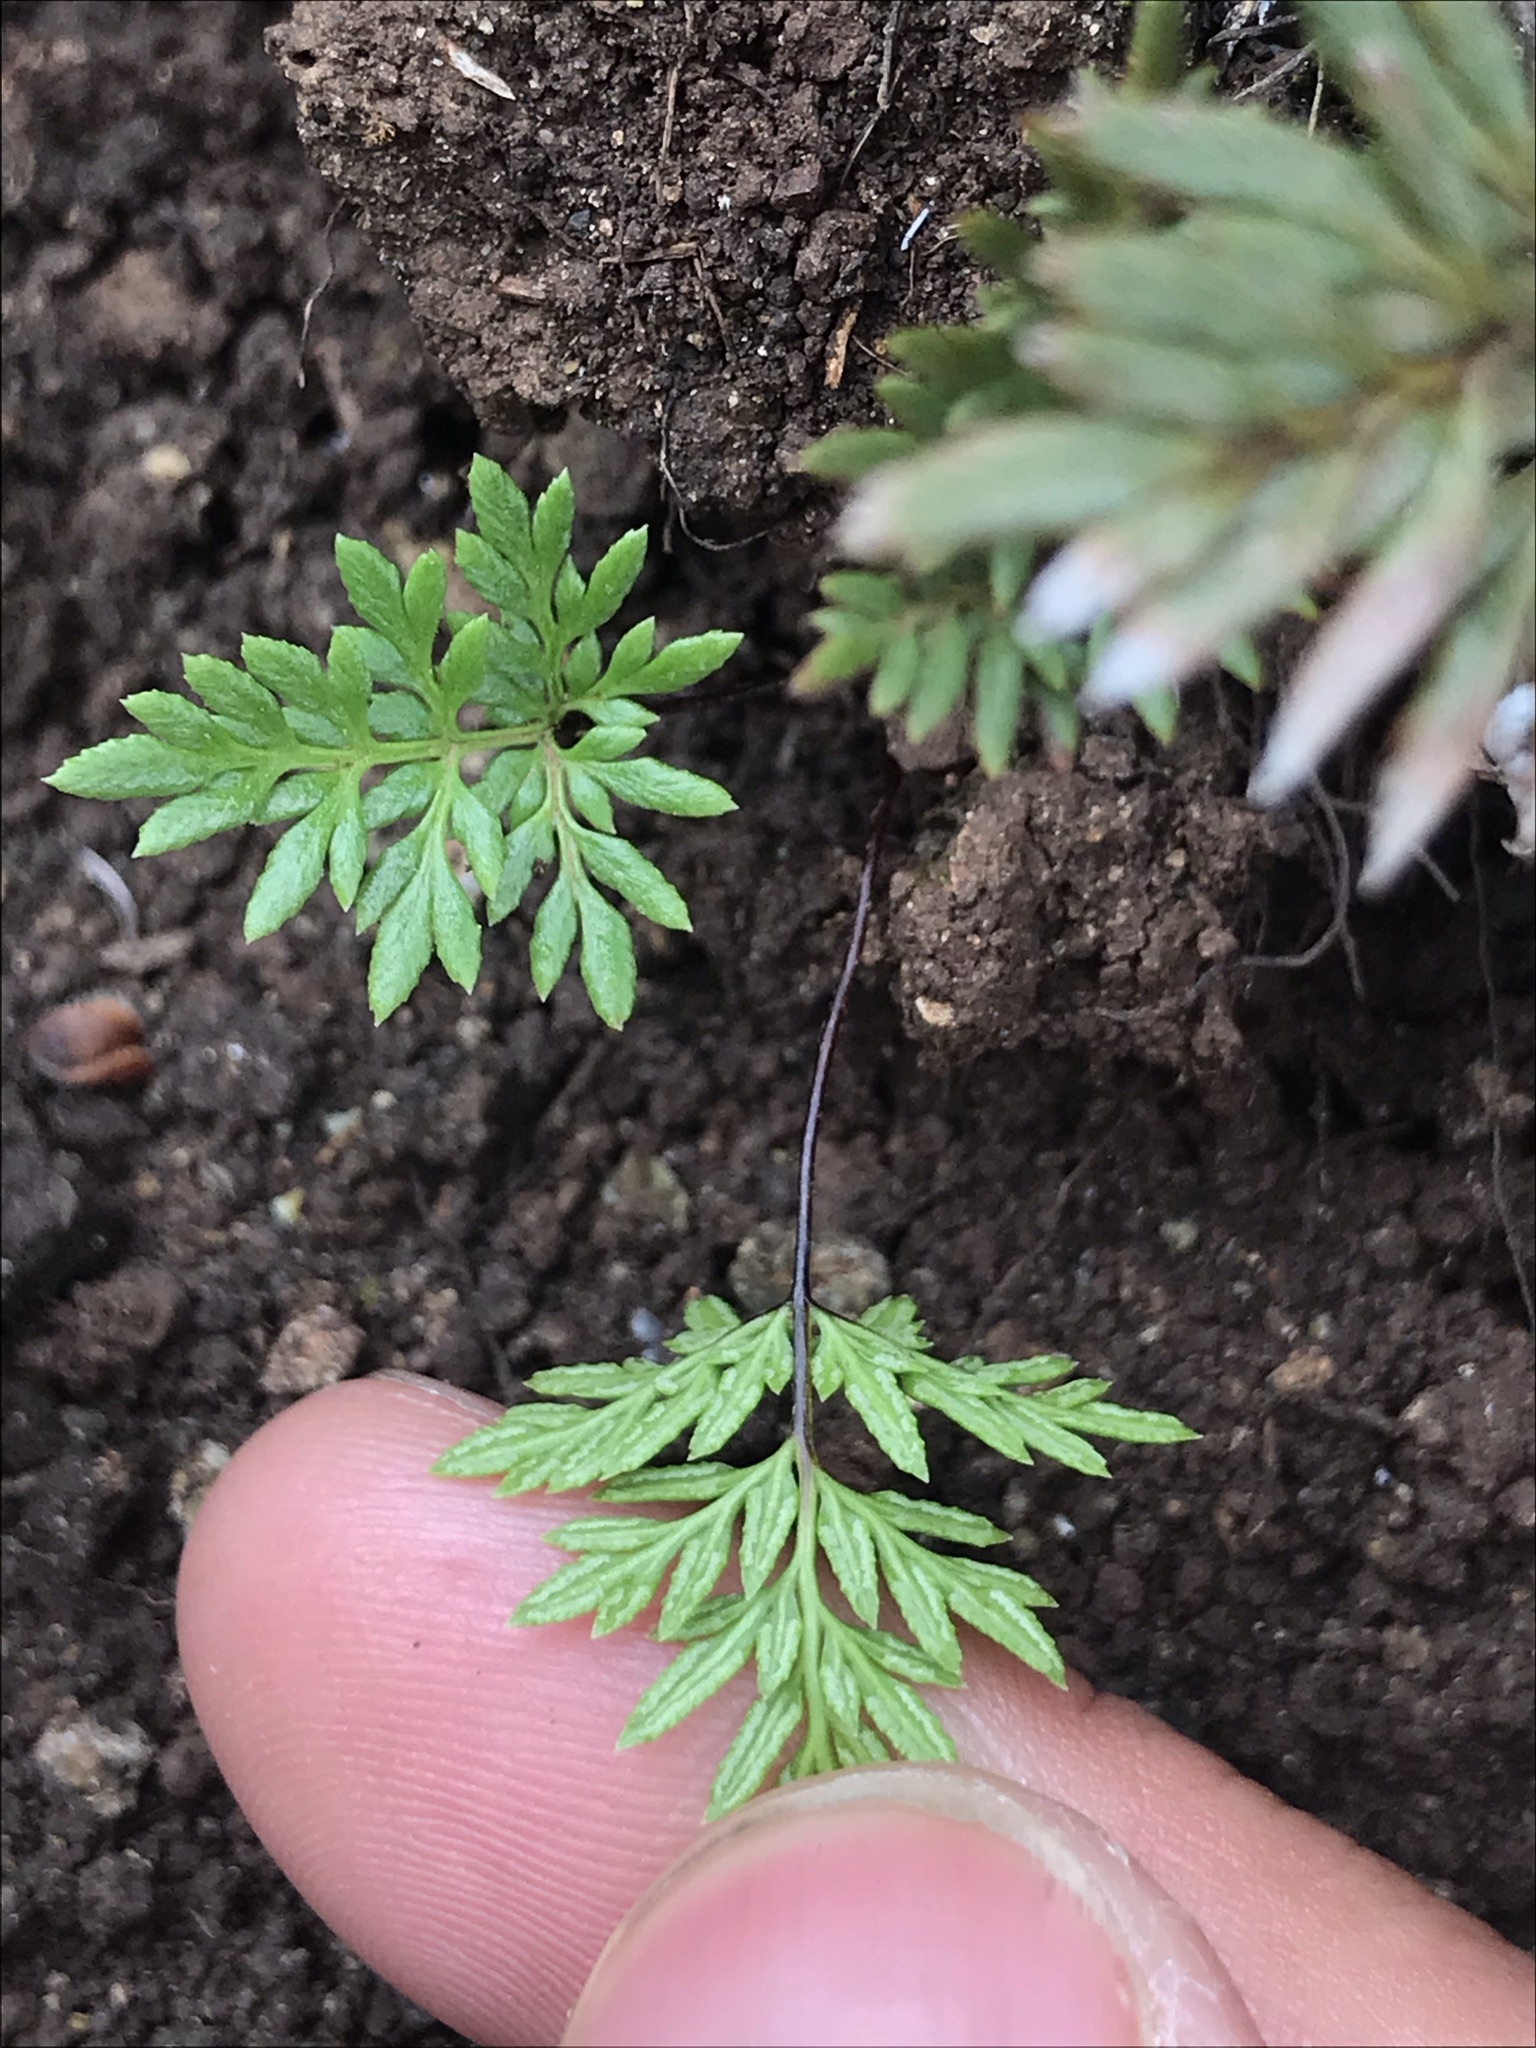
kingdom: Plantae
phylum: Tracheophyta
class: Polypodiopsida
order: Polypodiales
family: Pteridaceae
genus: Aspidotis
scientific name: Aspidotis densa
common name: Indian's dream
